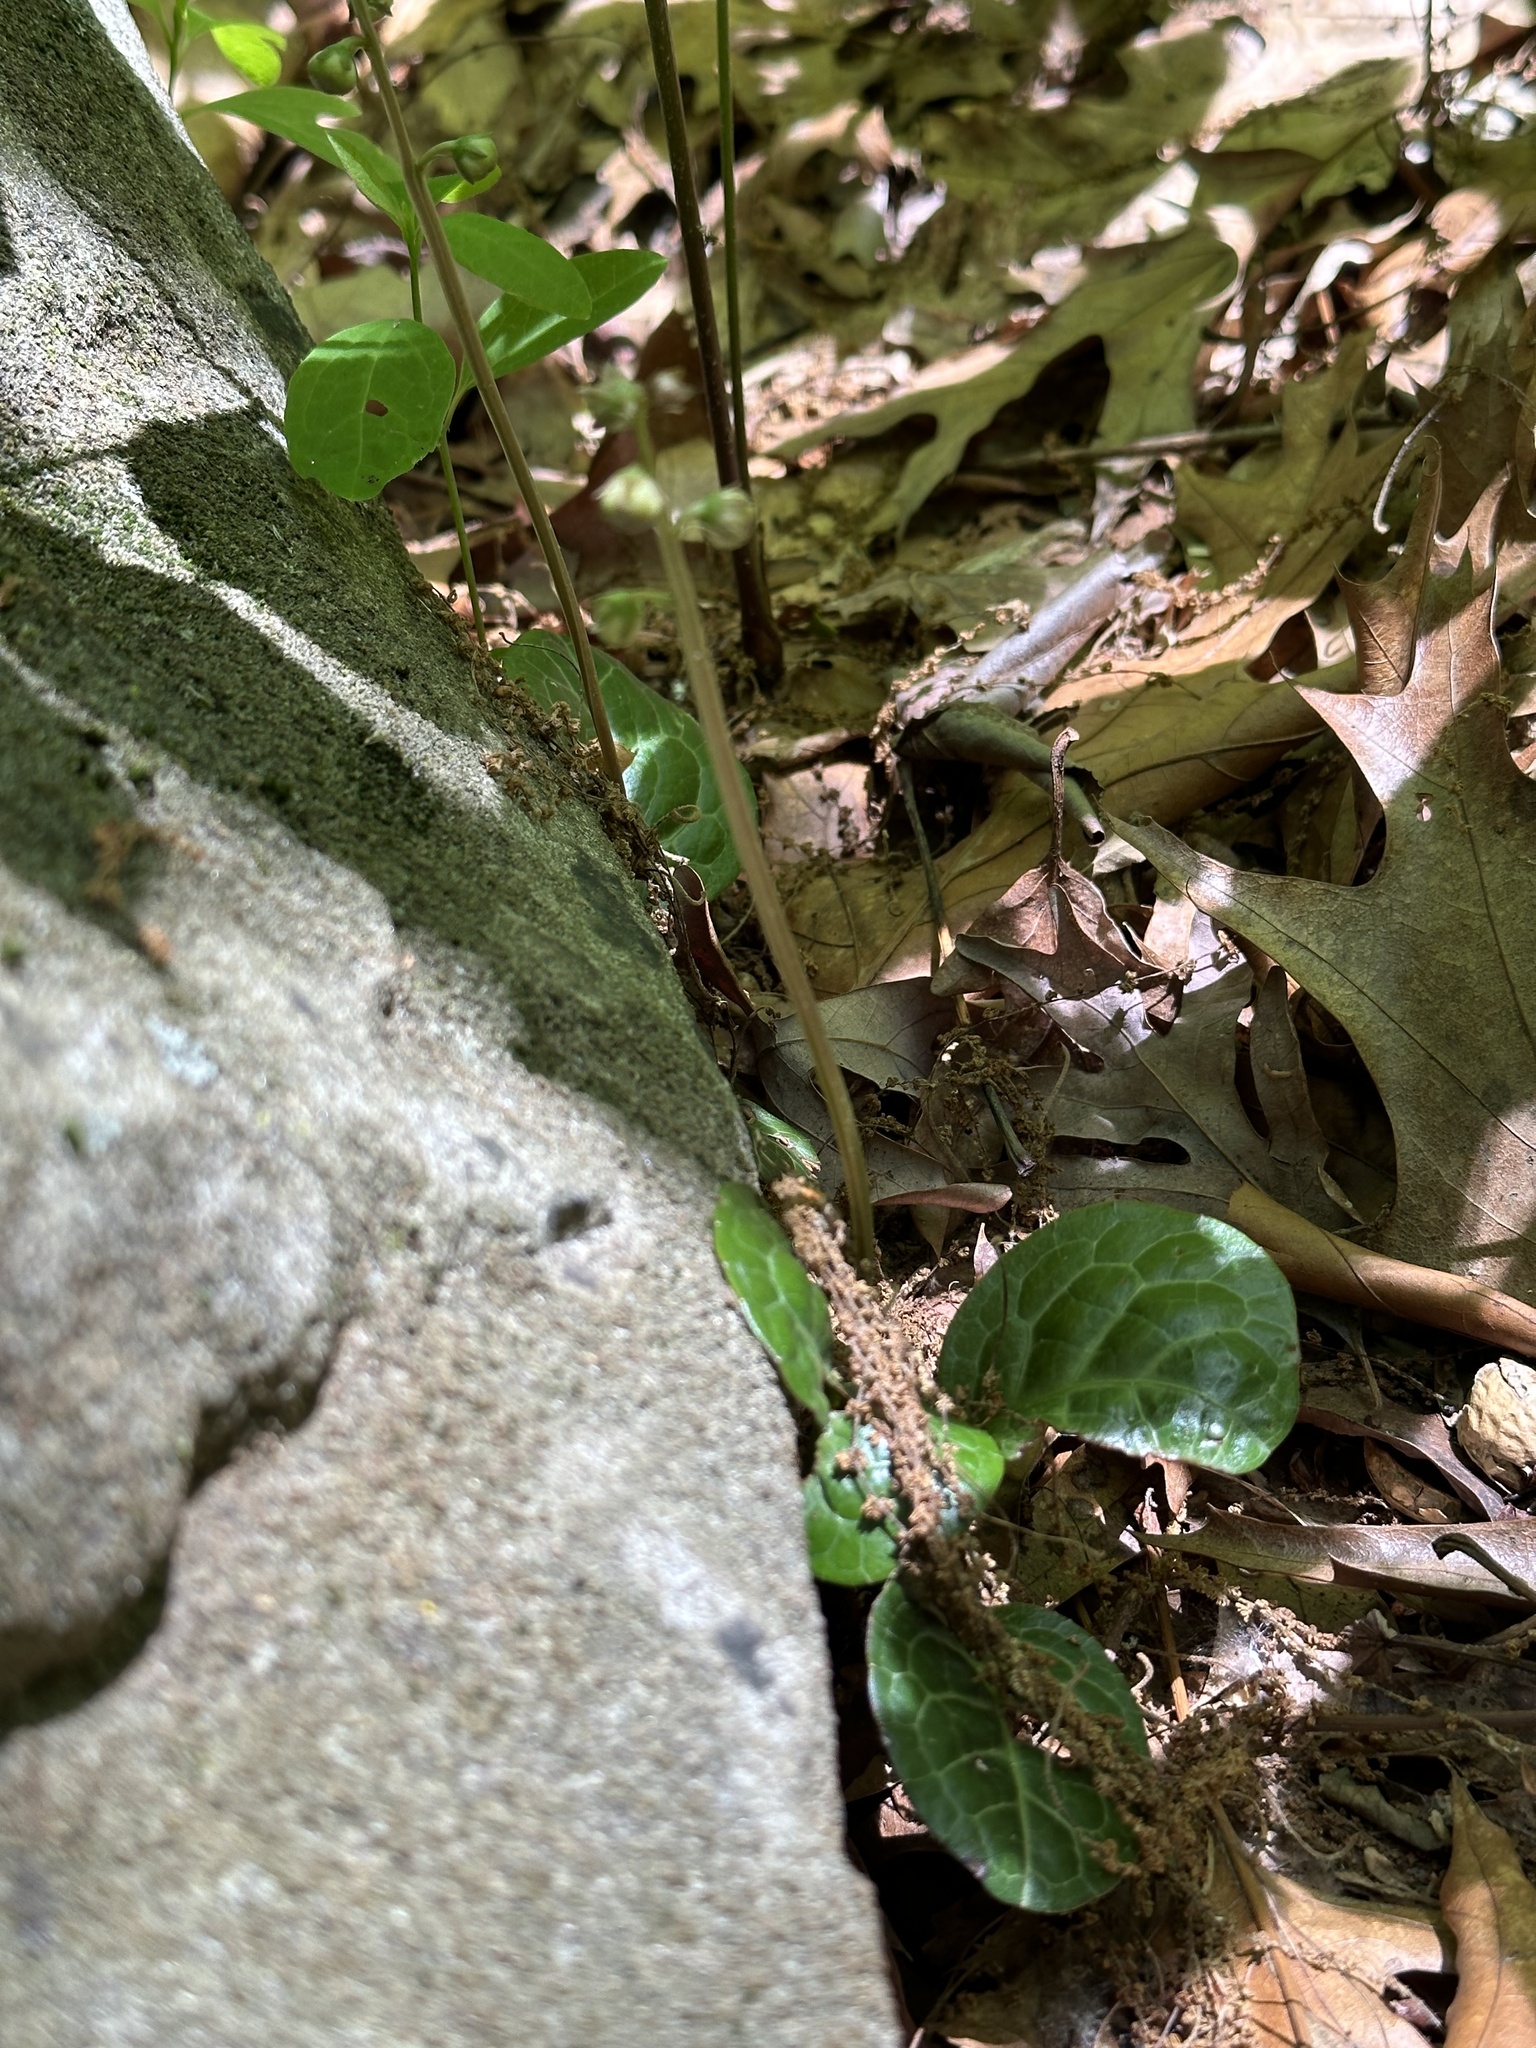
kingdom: Plantae
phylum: Tracheophyta
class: Magnoliopsida
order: Ericales
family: Ericaceae
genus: Pyrola
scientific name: Pyrola americana
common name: American wintergreen
